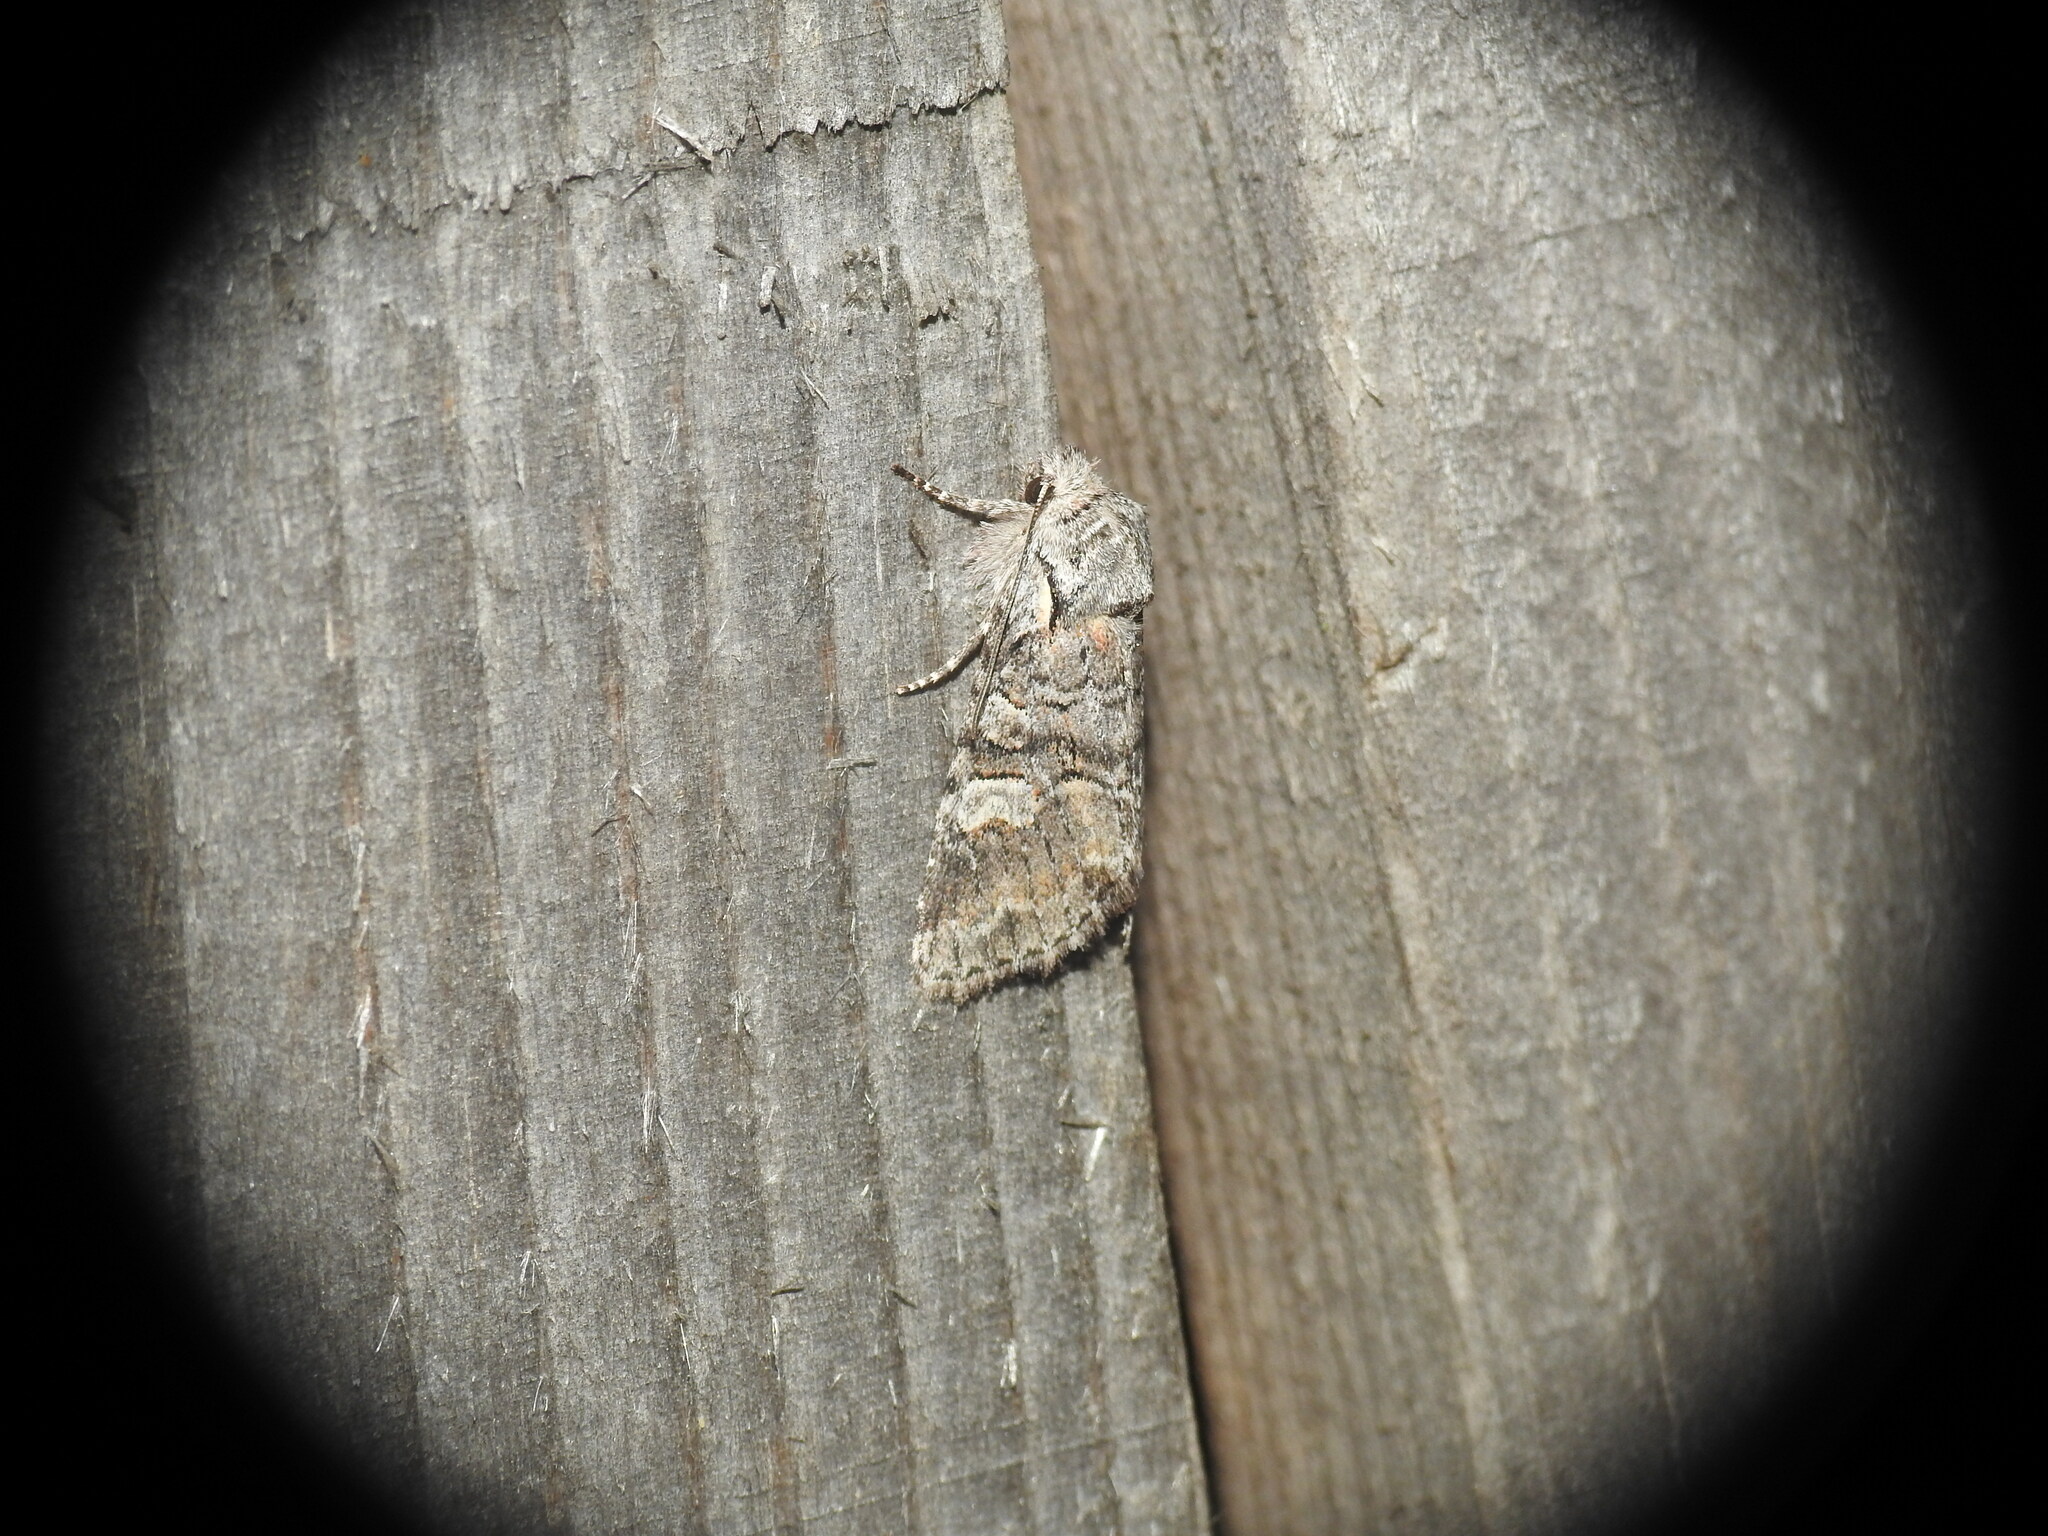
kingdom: Animalia
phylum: Arthropoda
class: Insecta
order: Lepidoptera
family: Noctuidae
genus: Brachylomia
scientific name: Brachylomia viminalis
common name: Minor shoulder-knot
